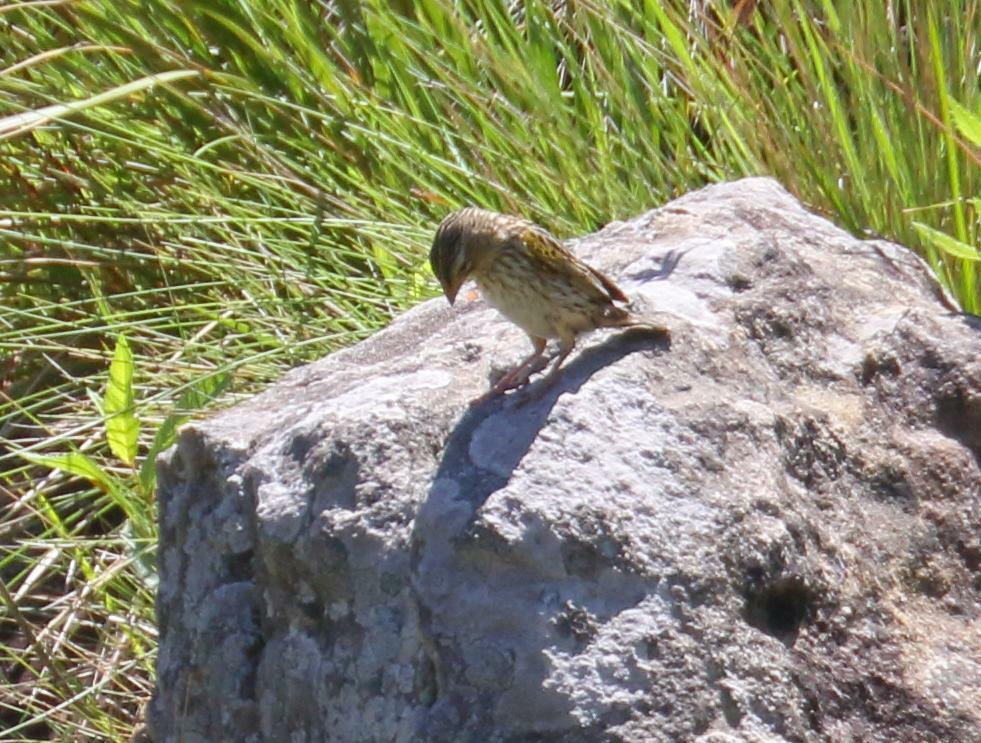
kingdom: Animalia
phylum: Chordata
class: Aves
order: Passeriformes
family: Ploceidae
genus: Euplectes
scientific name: Euplectes capensis
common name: Yellow bishop
